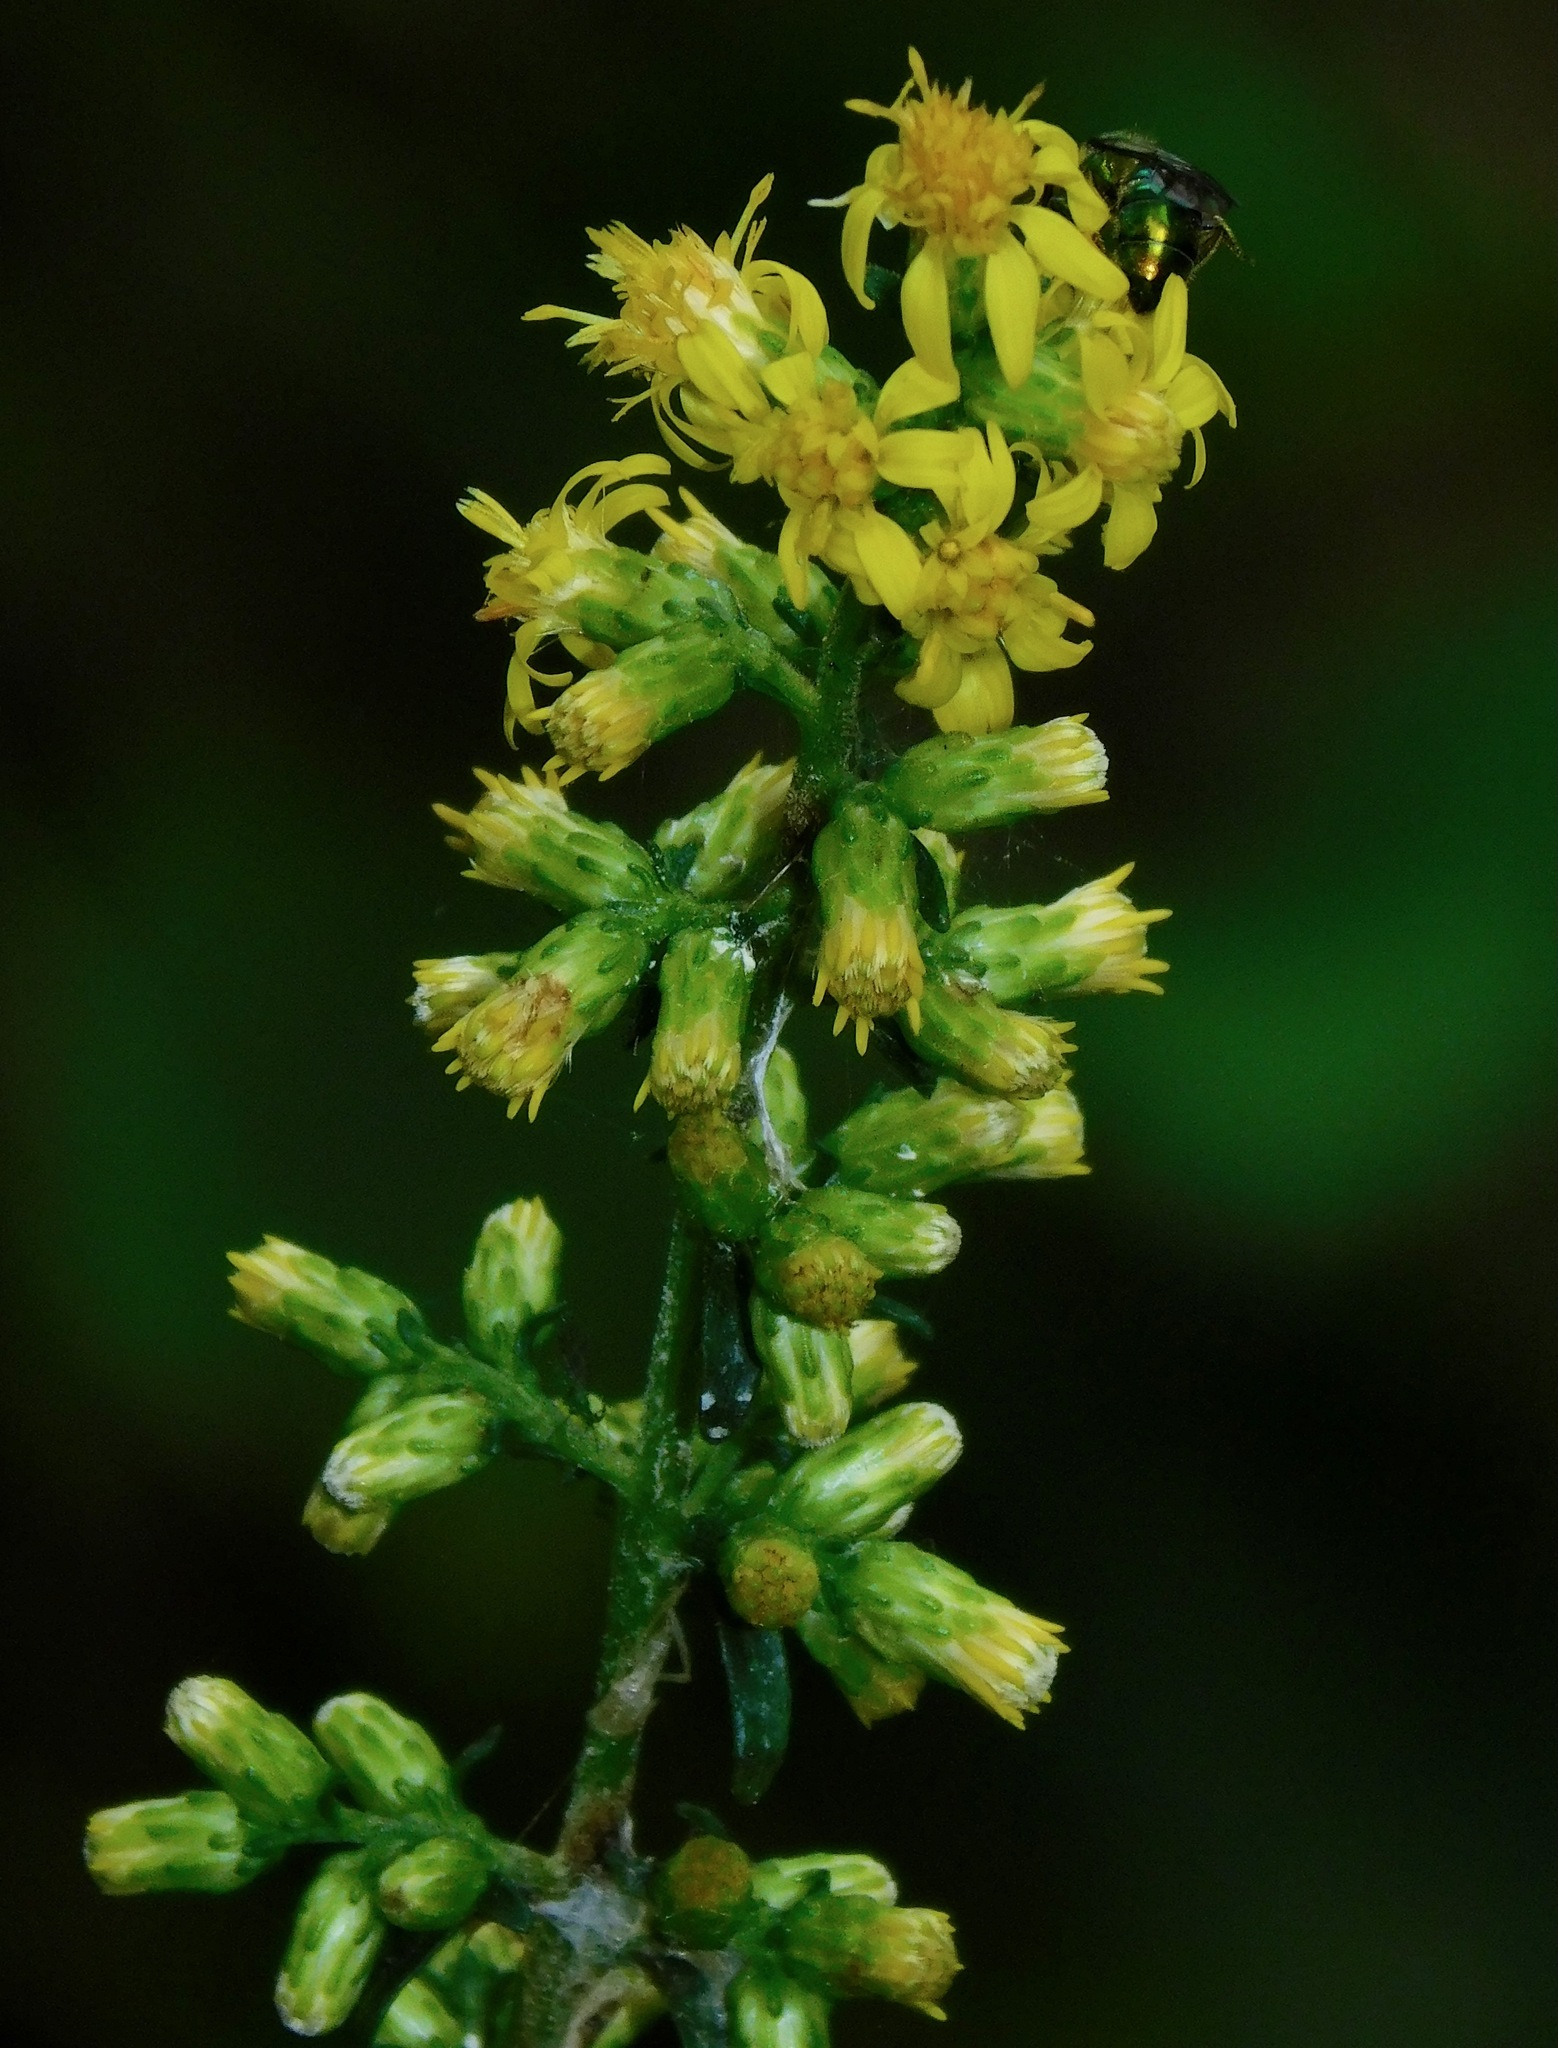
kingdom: Animalia
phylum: Arthropoda
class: Insecta
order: Hymenoptera
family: Halictidae
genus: Augochlora
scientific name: Augochlora pura
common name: Pure green sweat bee
